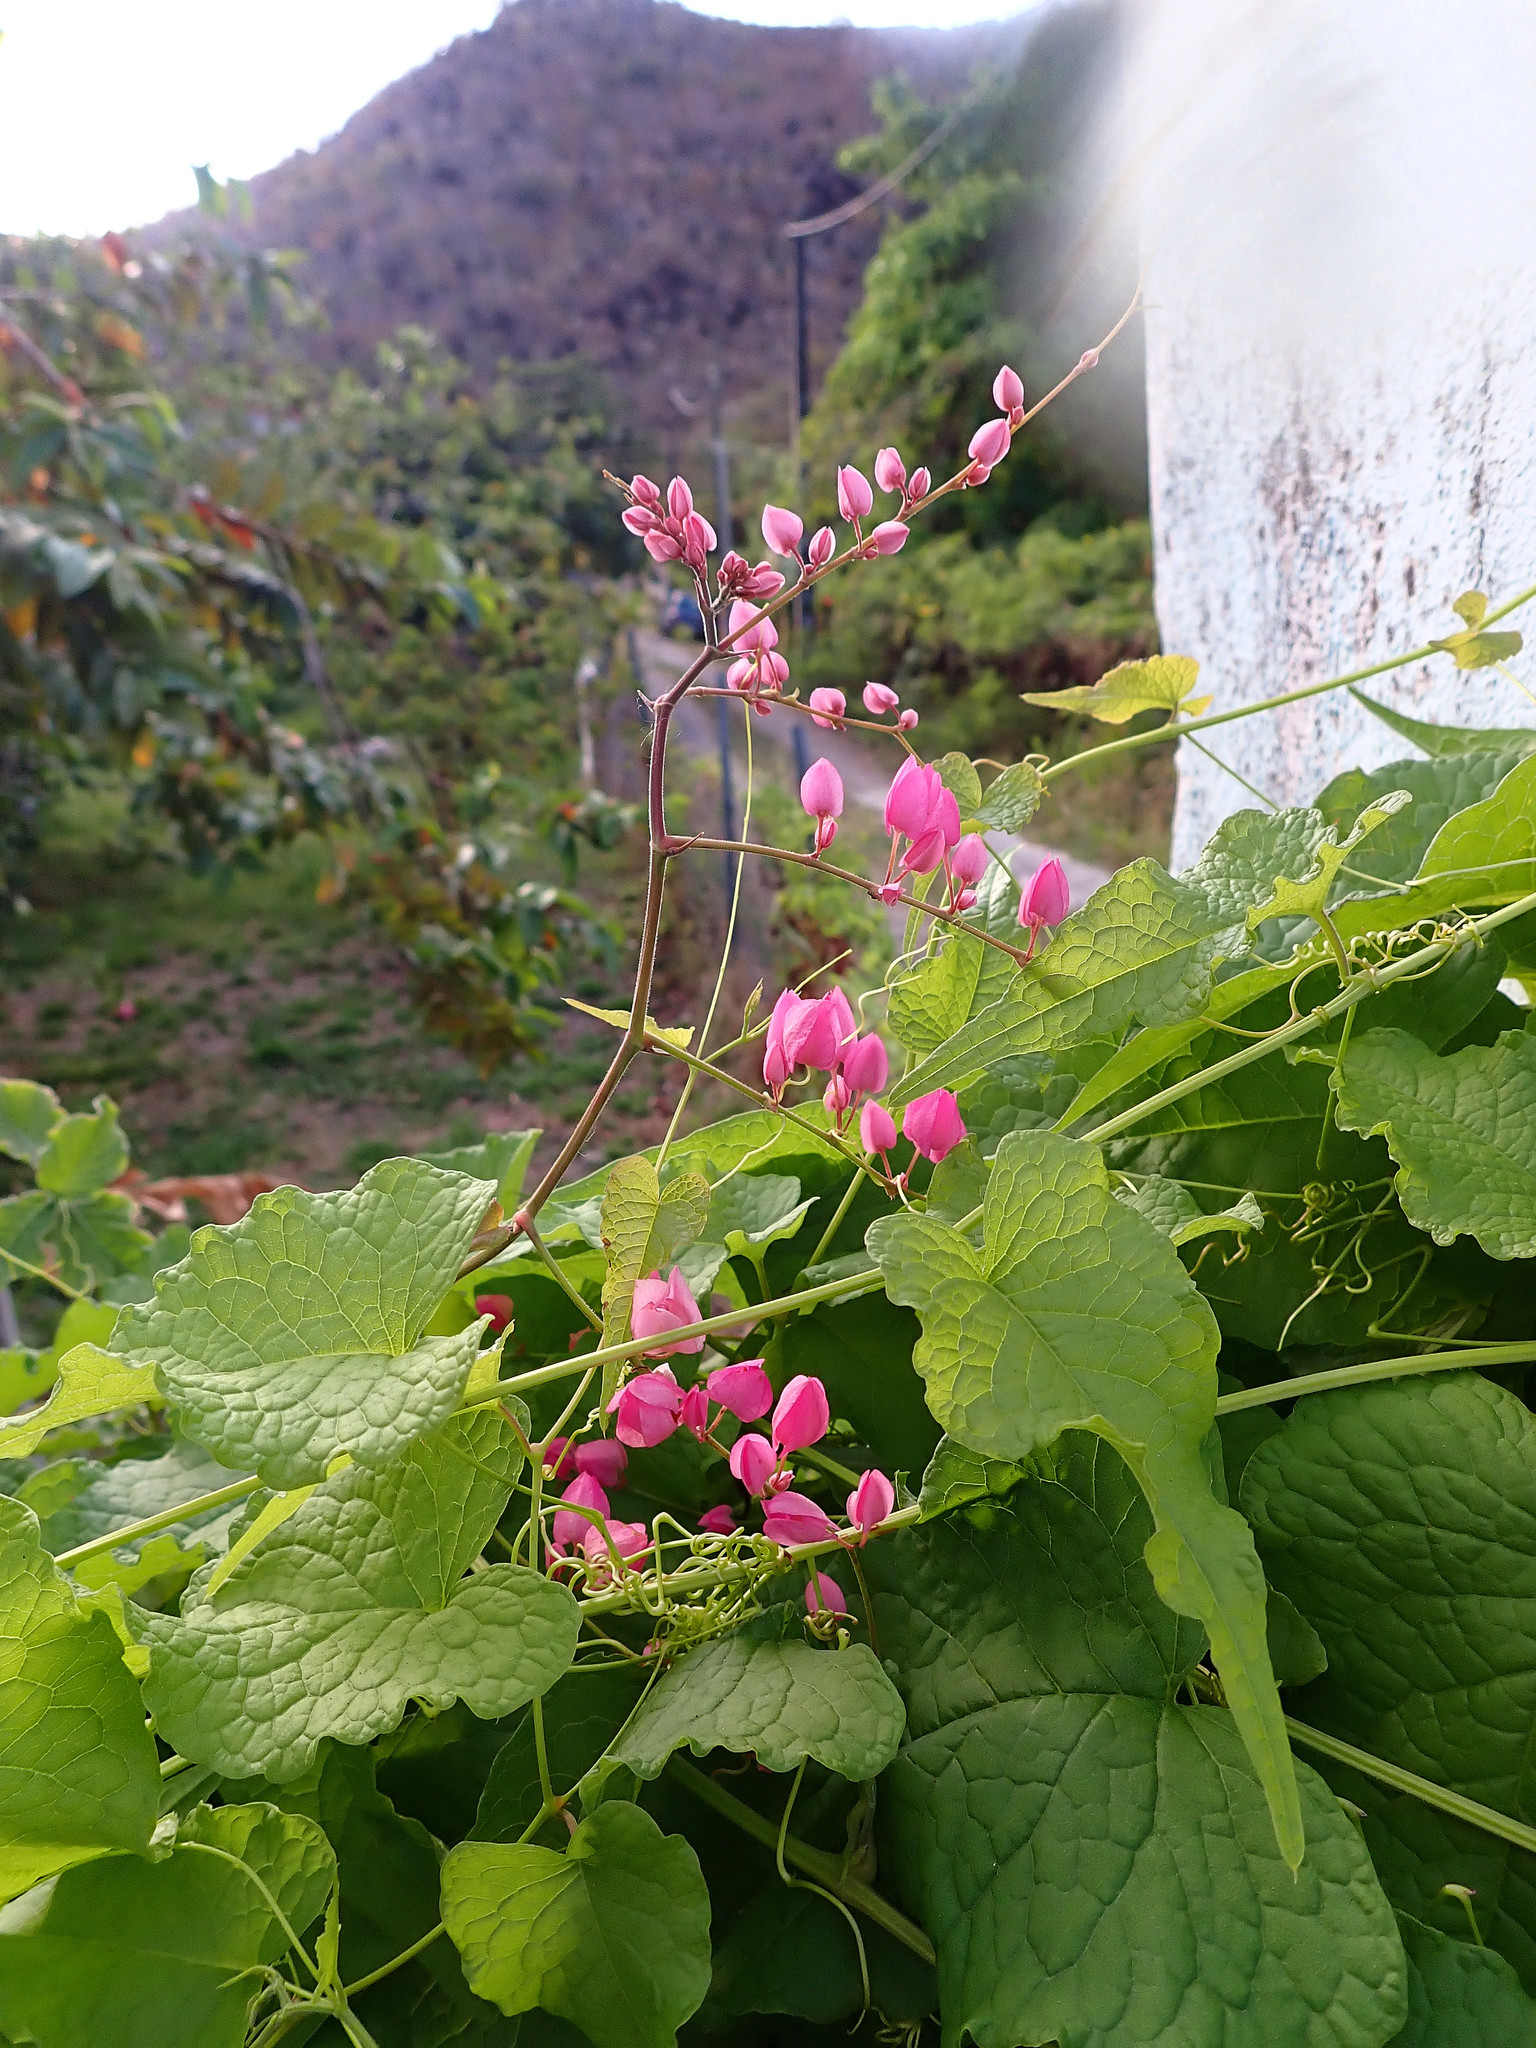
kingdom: Plantae
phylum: Tracheophyta
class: Magnoliopsida
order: Caryophyllales
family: Polygonaceae
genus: Antigonon
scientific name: Antigonon leptopus
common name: Coral vine
